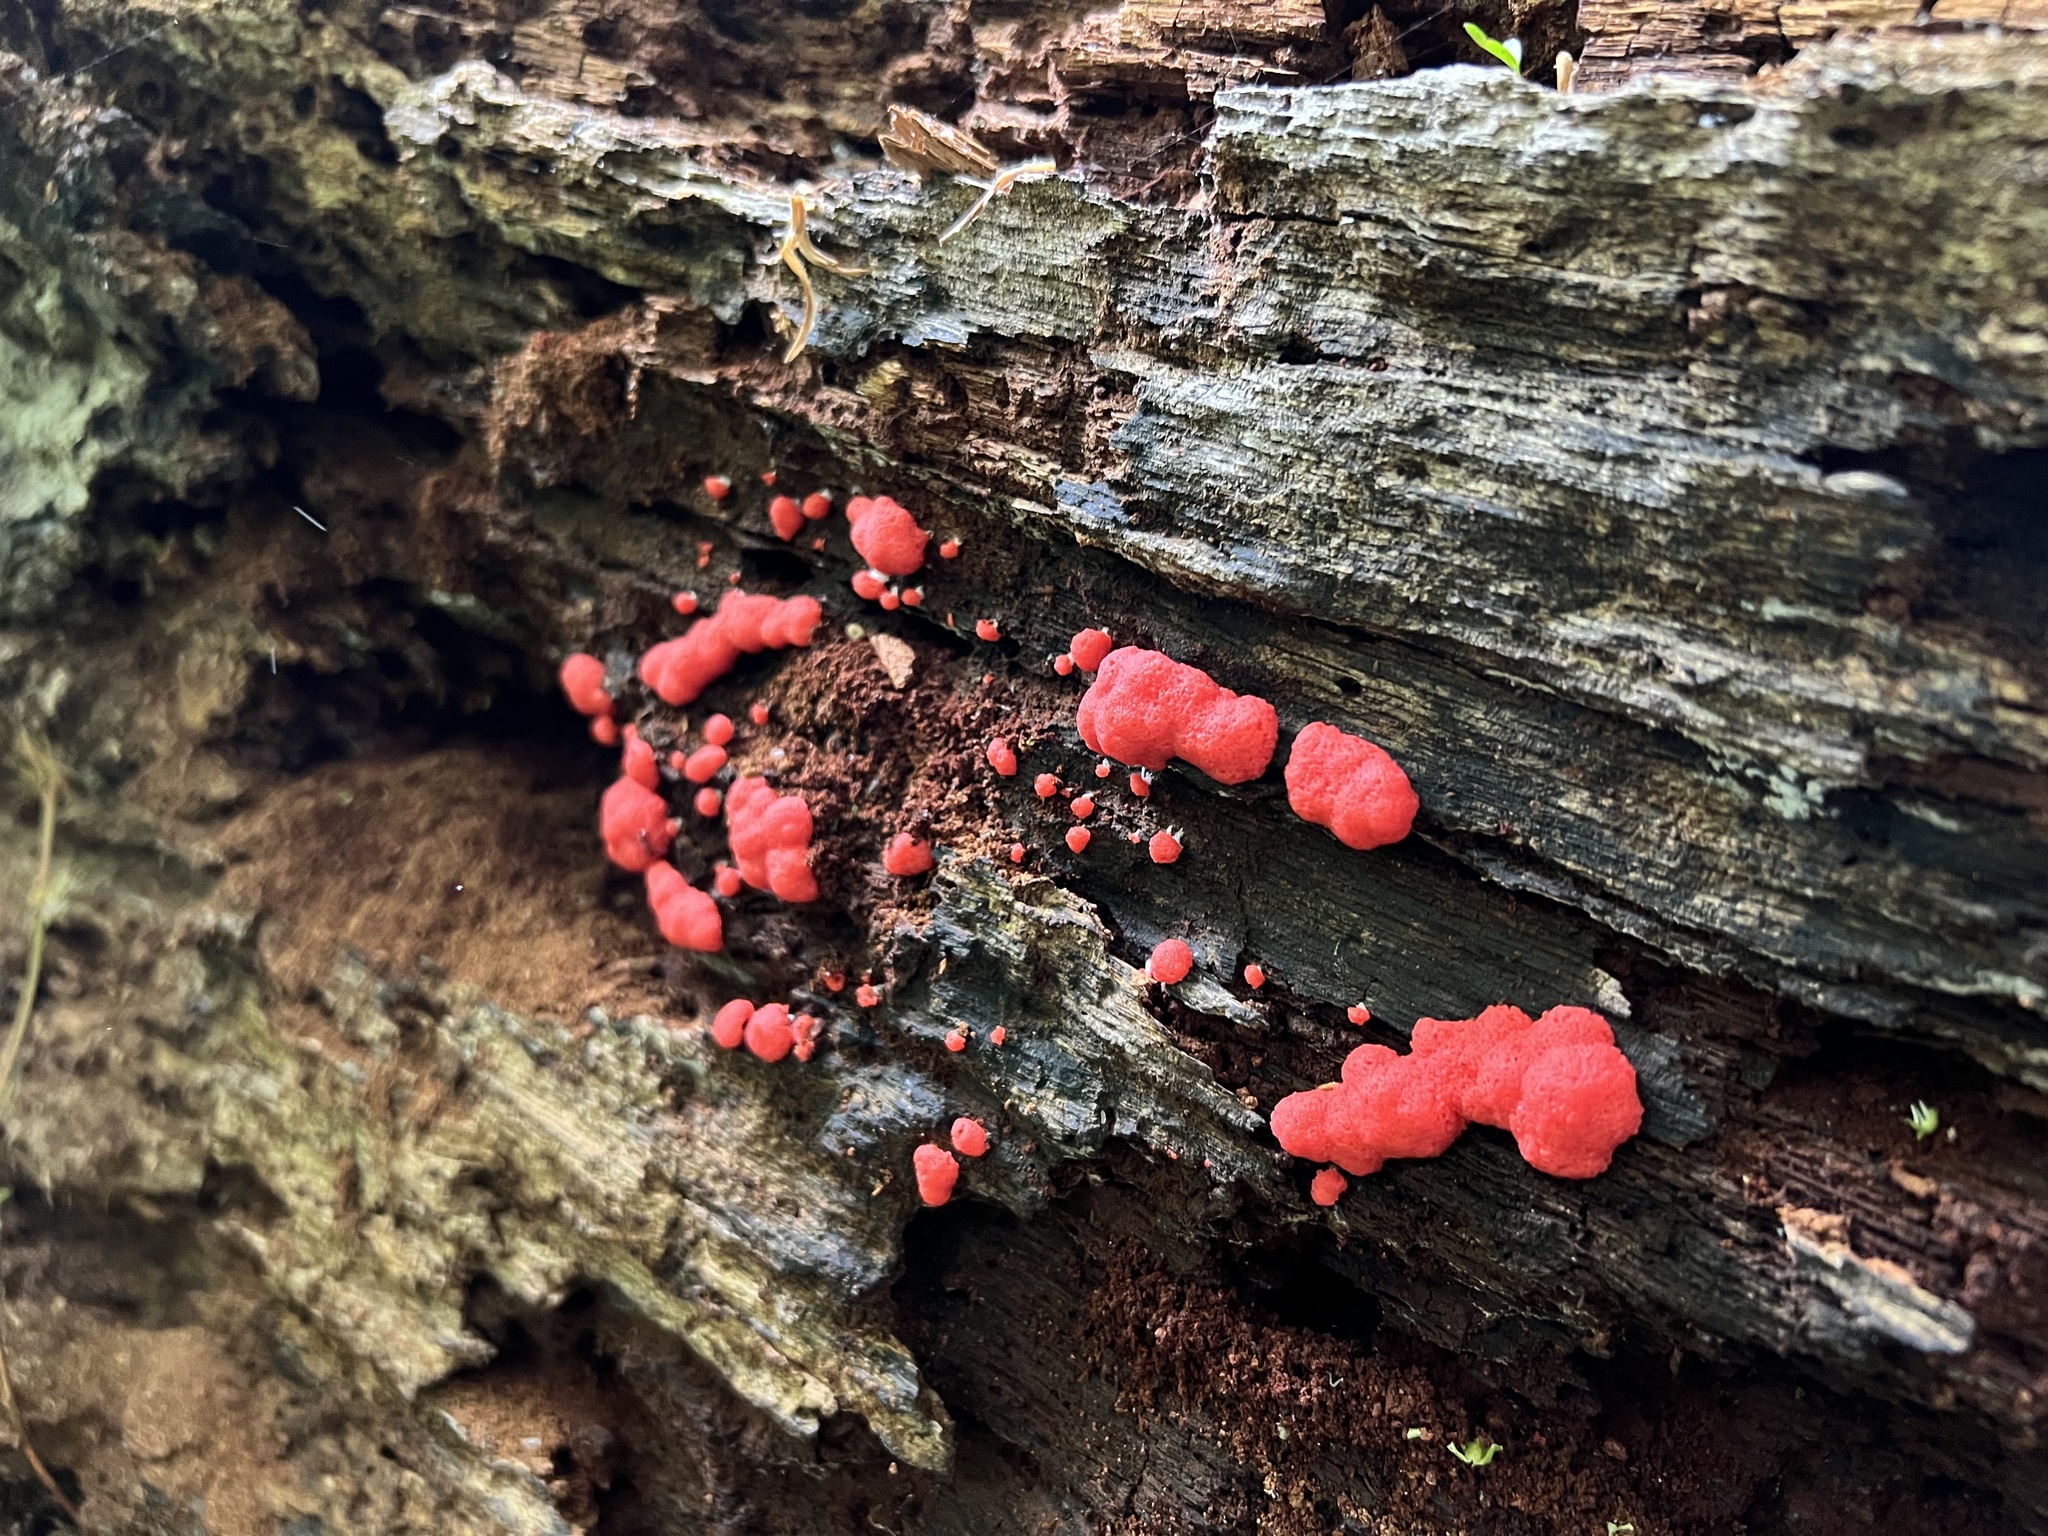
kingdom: Protozoa
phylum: Mycetozoa
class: Myxomycetes
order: Cribrariales
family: Tubiferaceae
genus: Tubifera
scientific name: Tubifera ferruginosa
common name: Red raspberry slime mold
